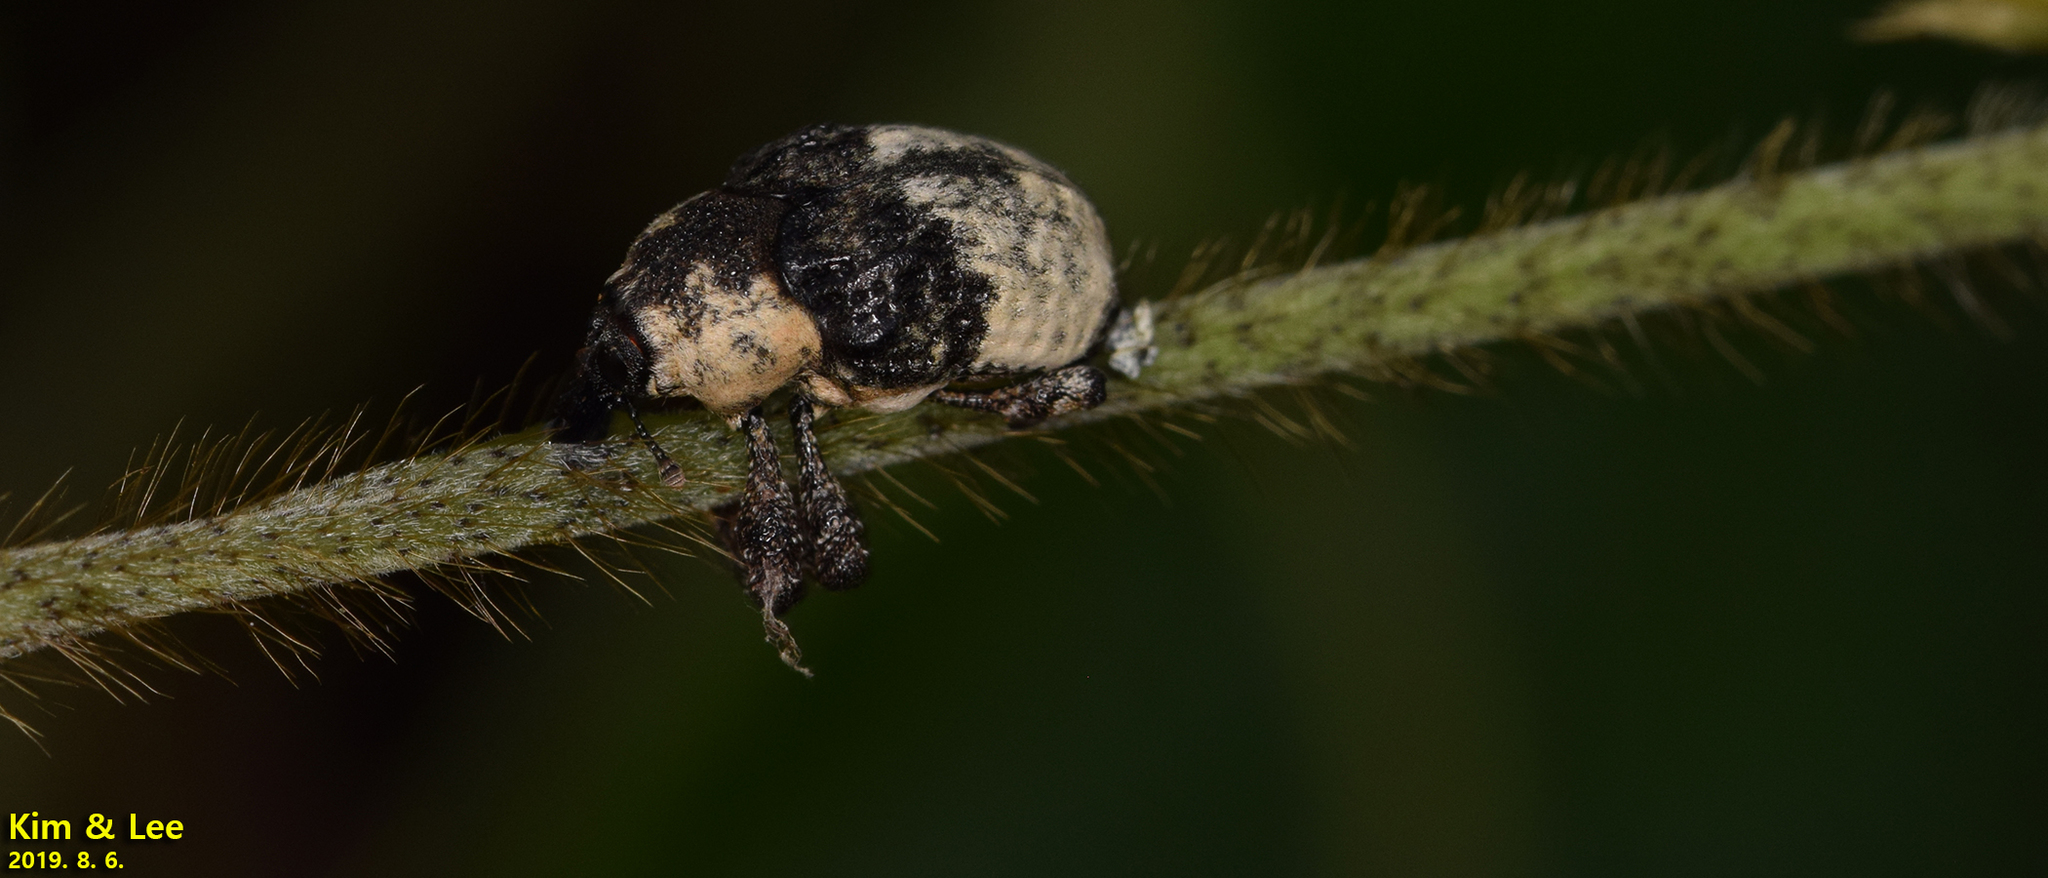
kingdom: Animalia
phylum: Arthropoda
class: Insecta
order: Coleoptera
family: Curculionidae
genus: Alcides
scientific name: Alcides trifidus
